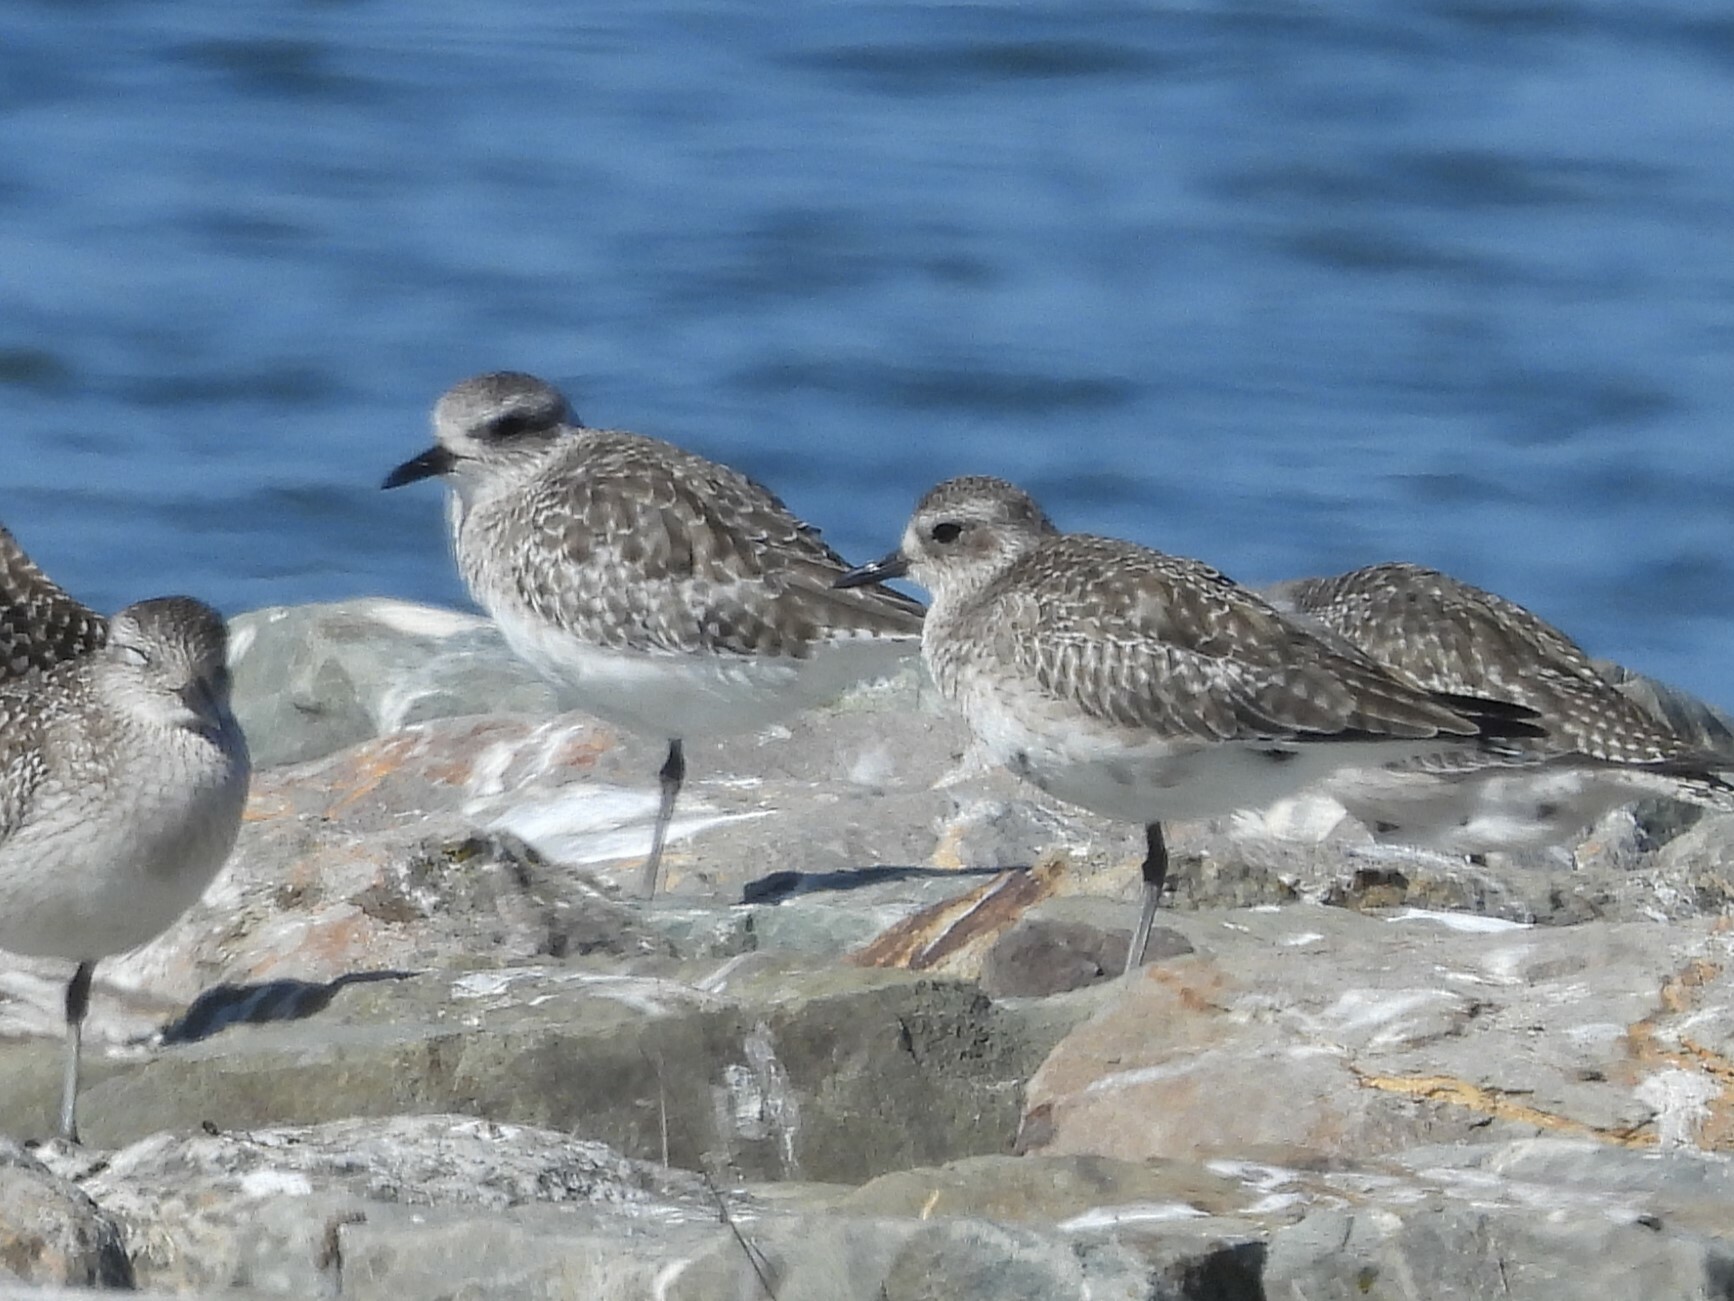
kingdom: Animalia
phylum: Chordata
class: Aves
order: Charadriiformes
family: Charadriidae
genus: Pluvialis
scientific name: Pluvialis squatarola
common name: Grey plover
